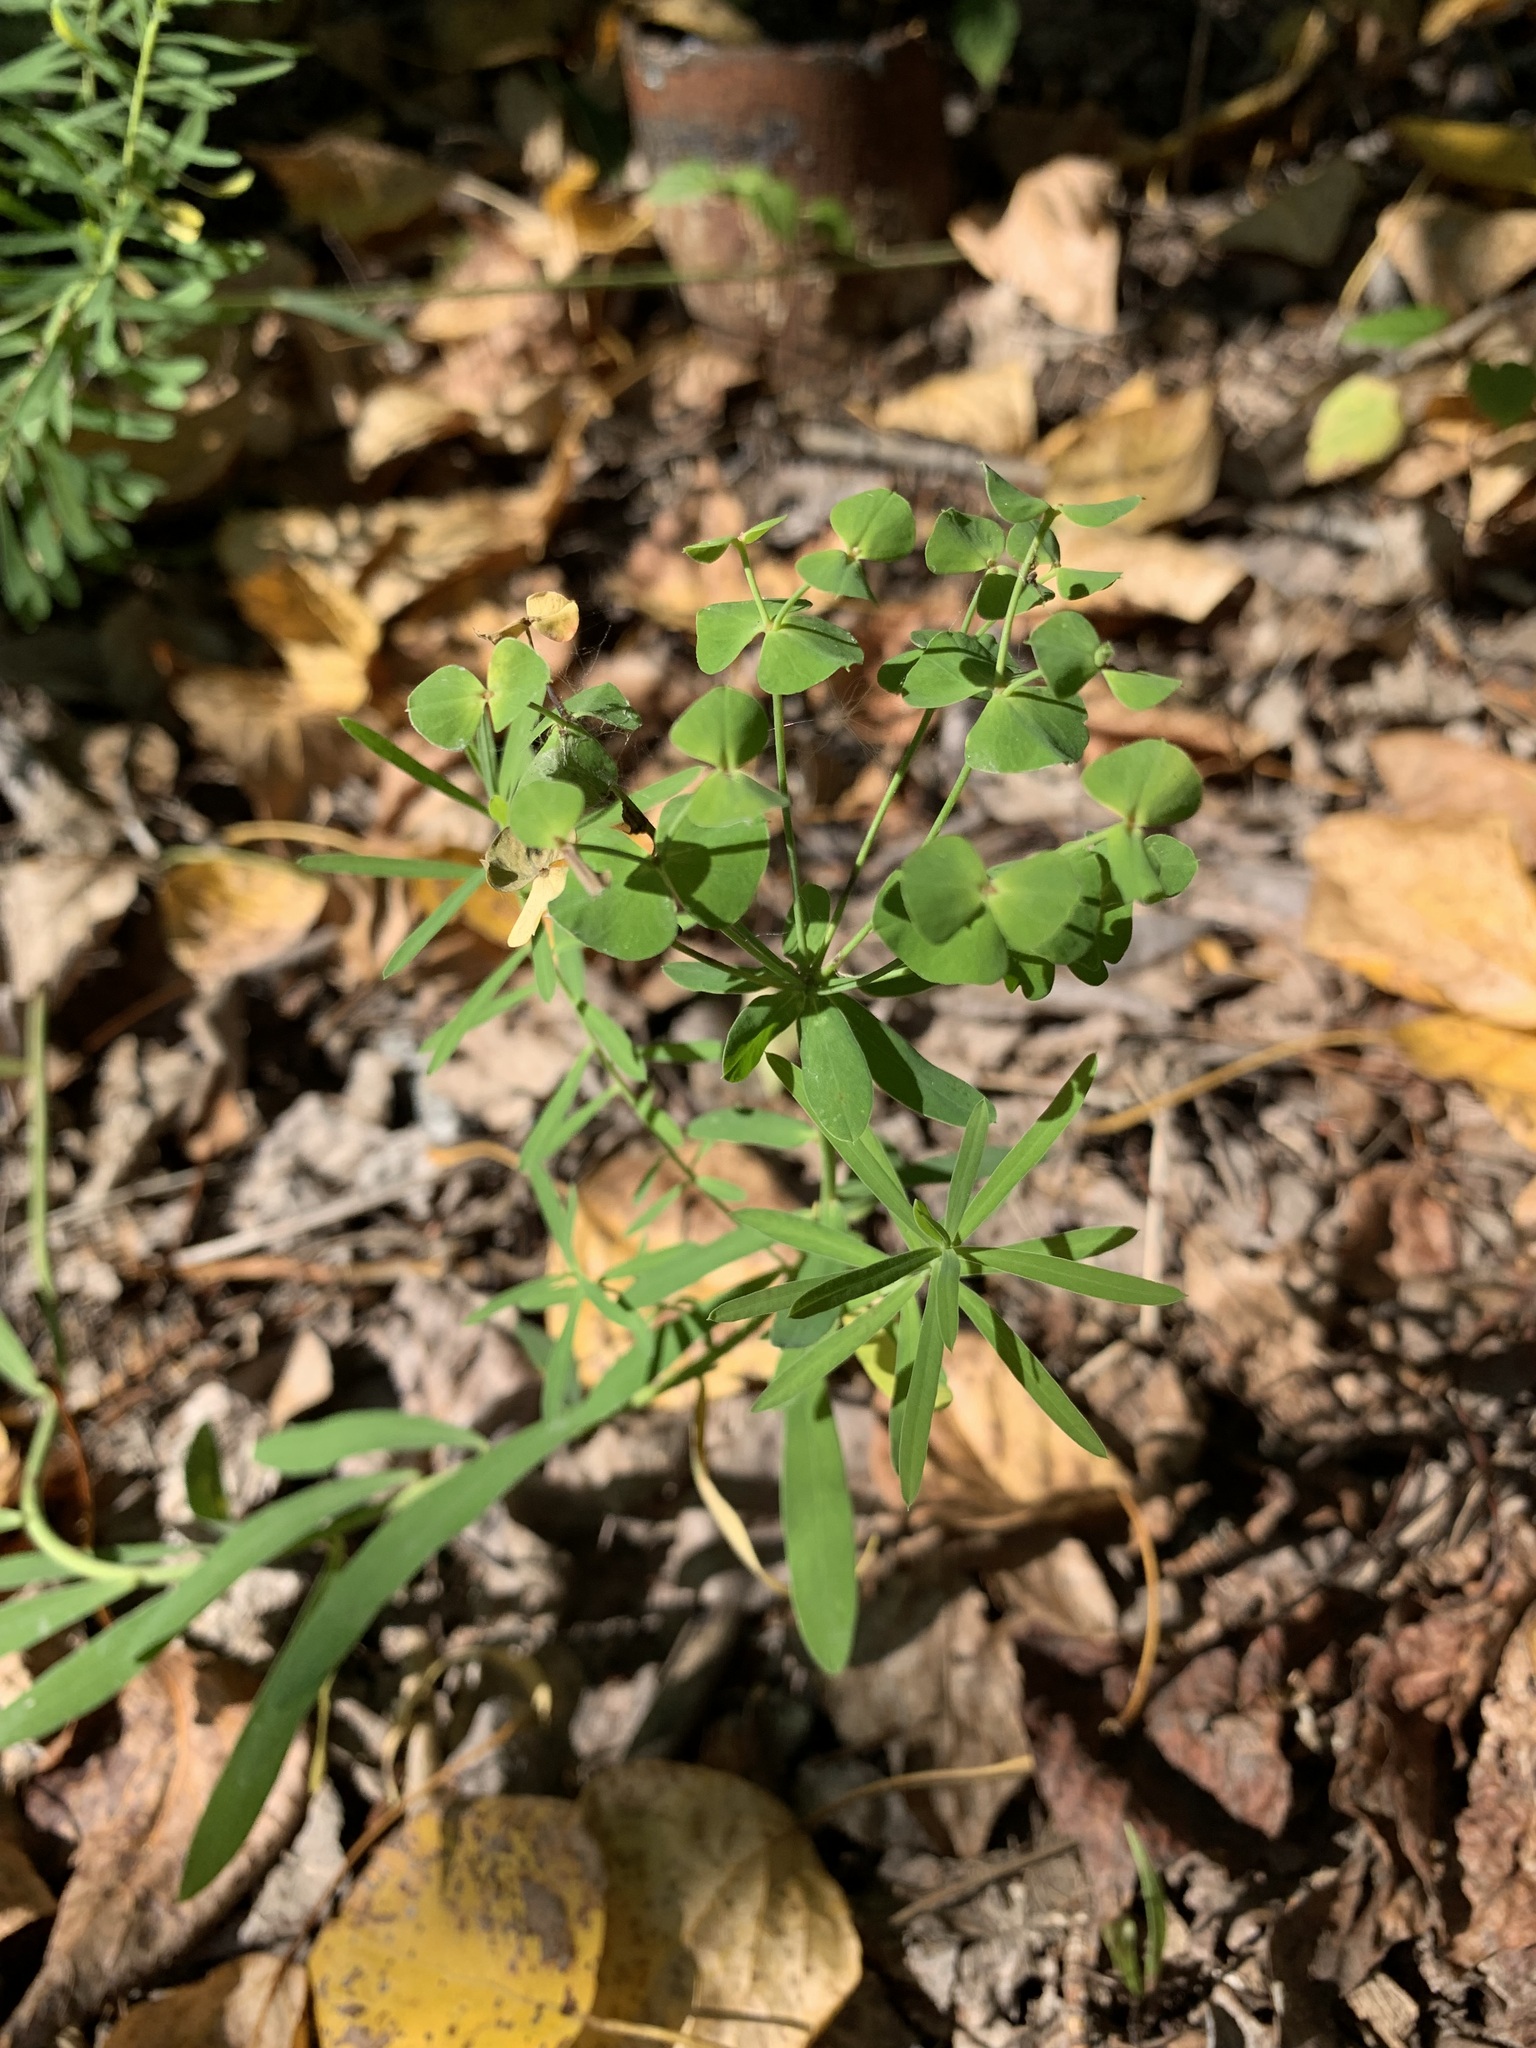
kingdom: Plantae
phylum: Tracheophyta
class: Magnoliopsida
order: Malpighiales
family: Euphorbiaceae
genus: Euphorbia
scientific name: Euphorbia virgata
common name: Leafy spurge
